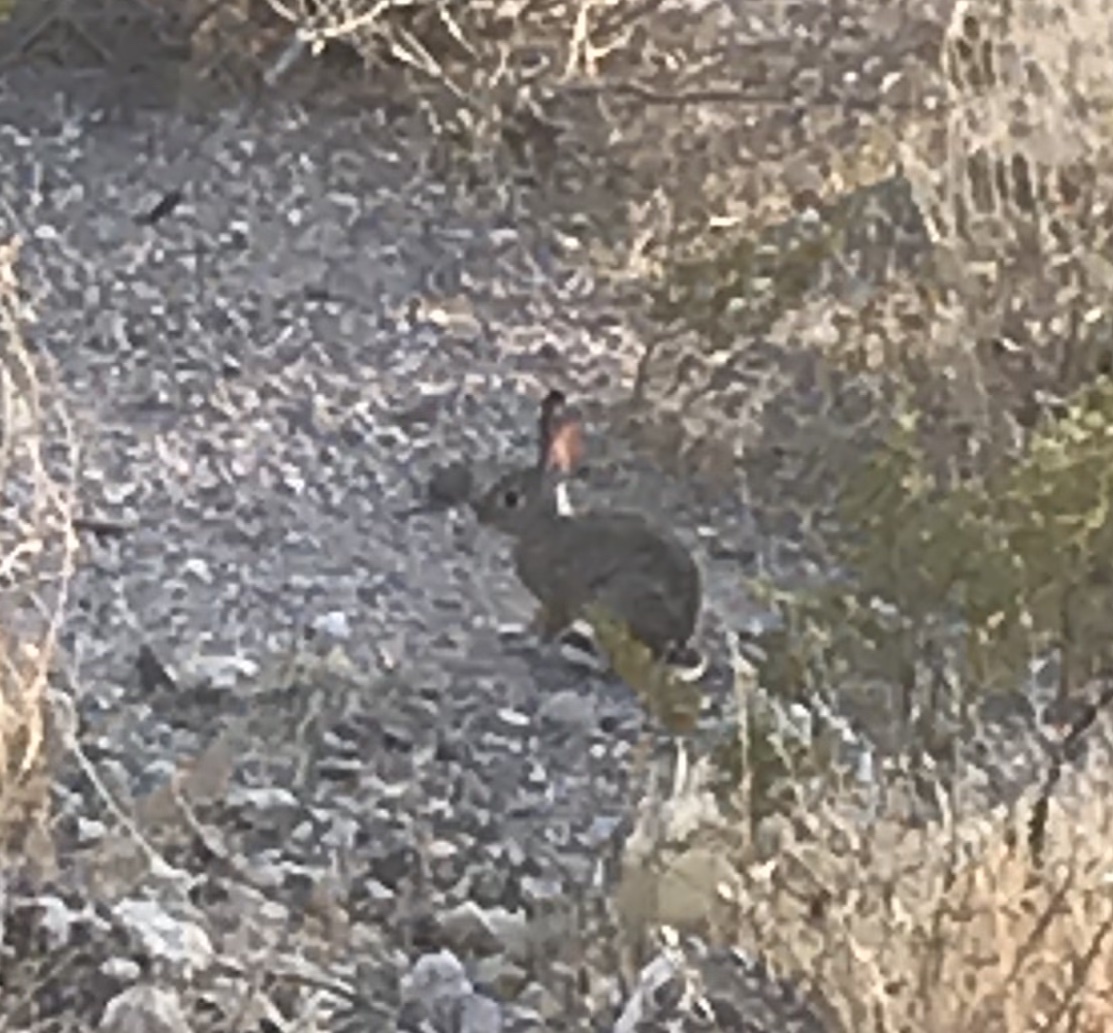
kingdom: Animalia
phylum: Chordata
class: Mammalia
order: Lagomorpha
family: Leporidae
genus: Sylvilagus
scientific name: Sylvilagus audubonii
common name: Desert cottontail
